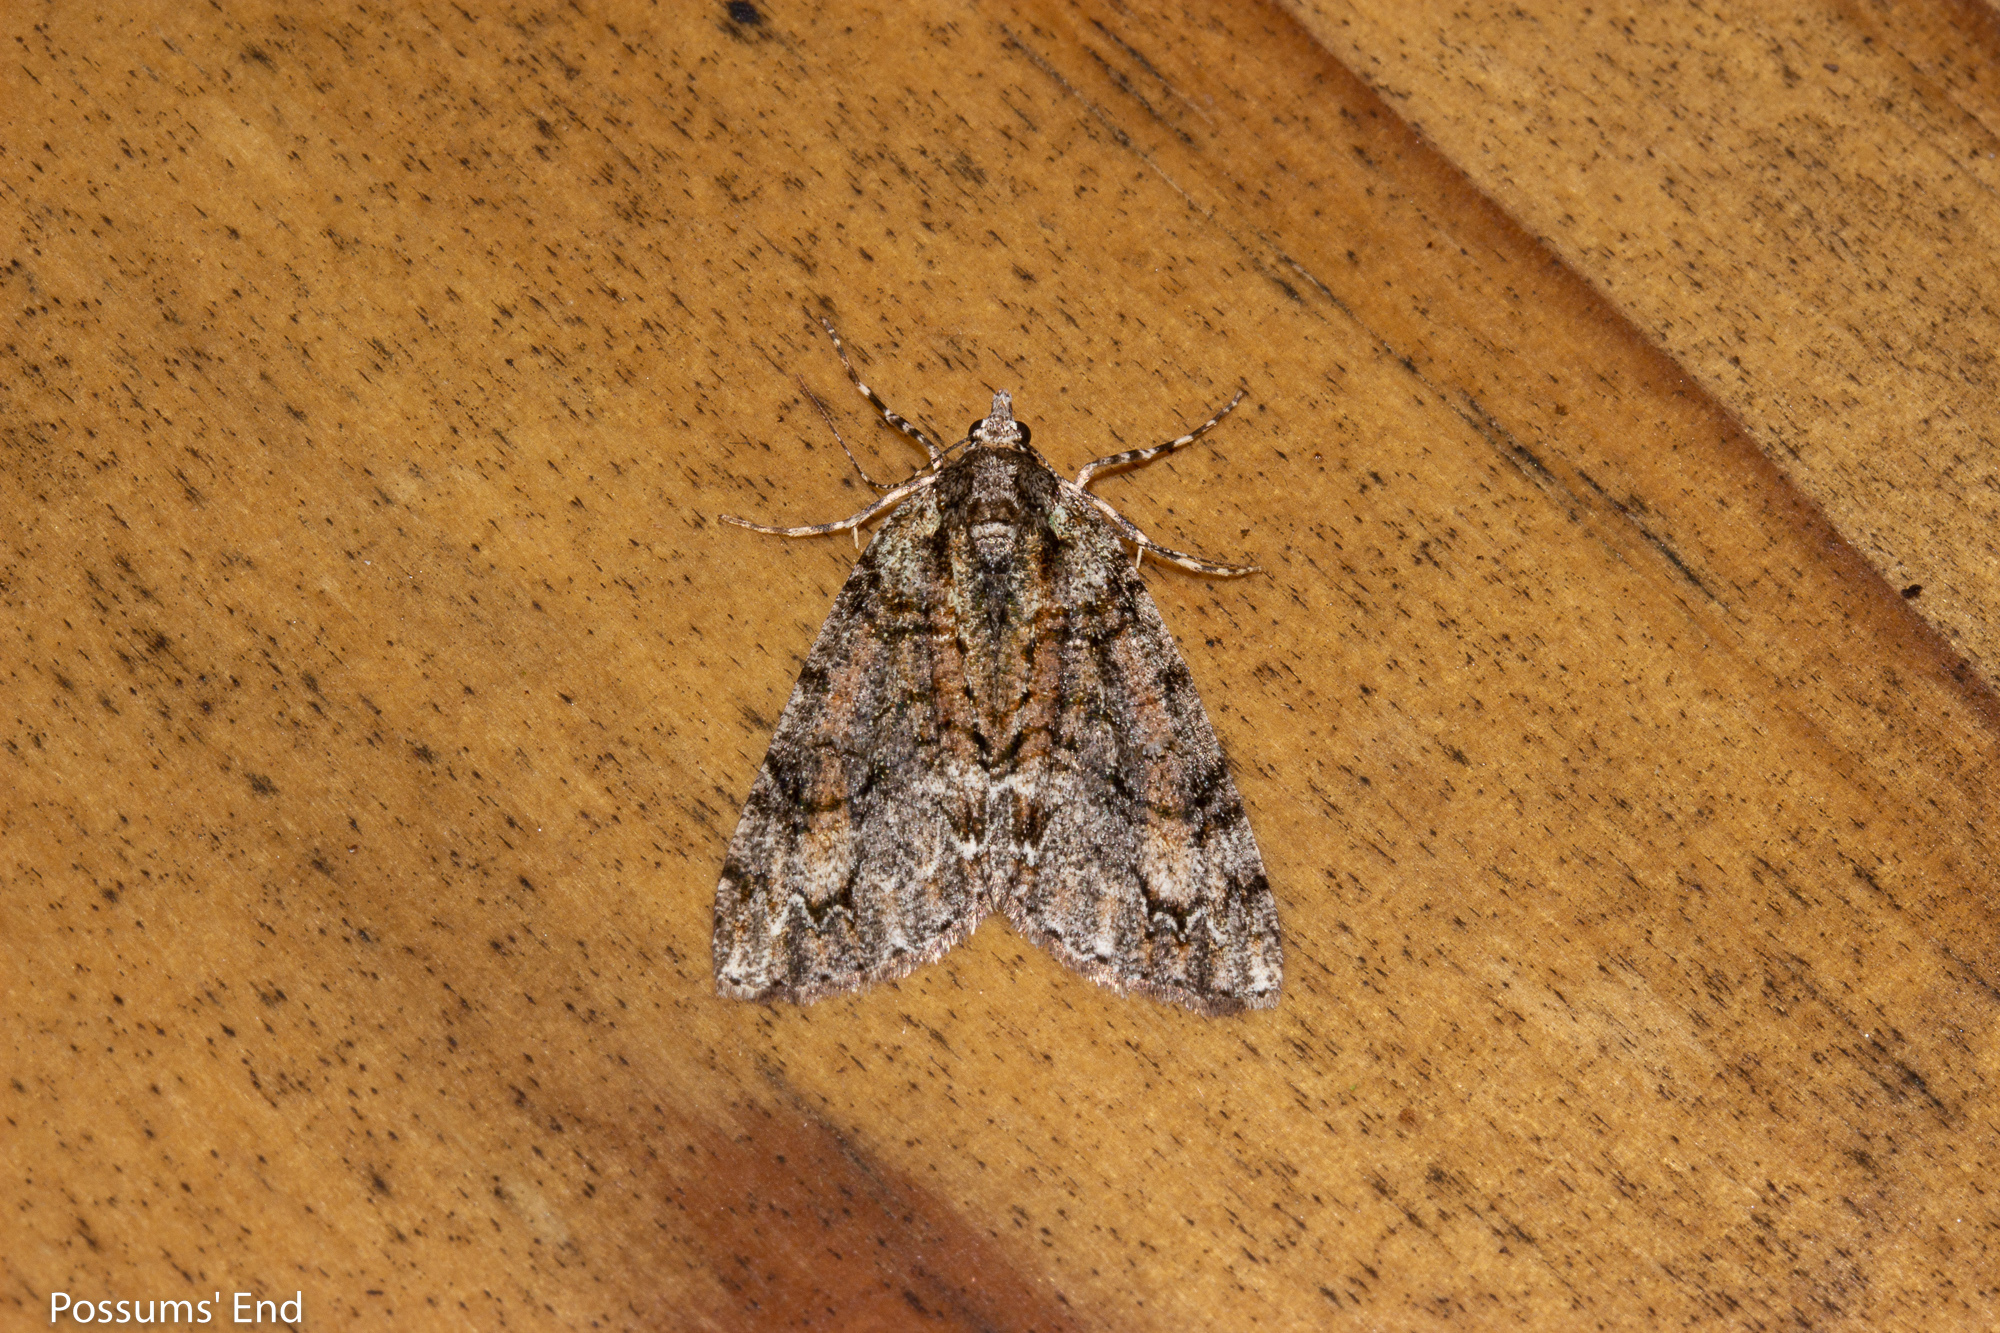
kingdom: Animalia
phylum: Arthropoda
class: Insecta
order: Lepidoptera
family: Geometridae
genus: Pseudocoremia
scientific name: Pseudocoremia suavis
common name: Common forest looper
